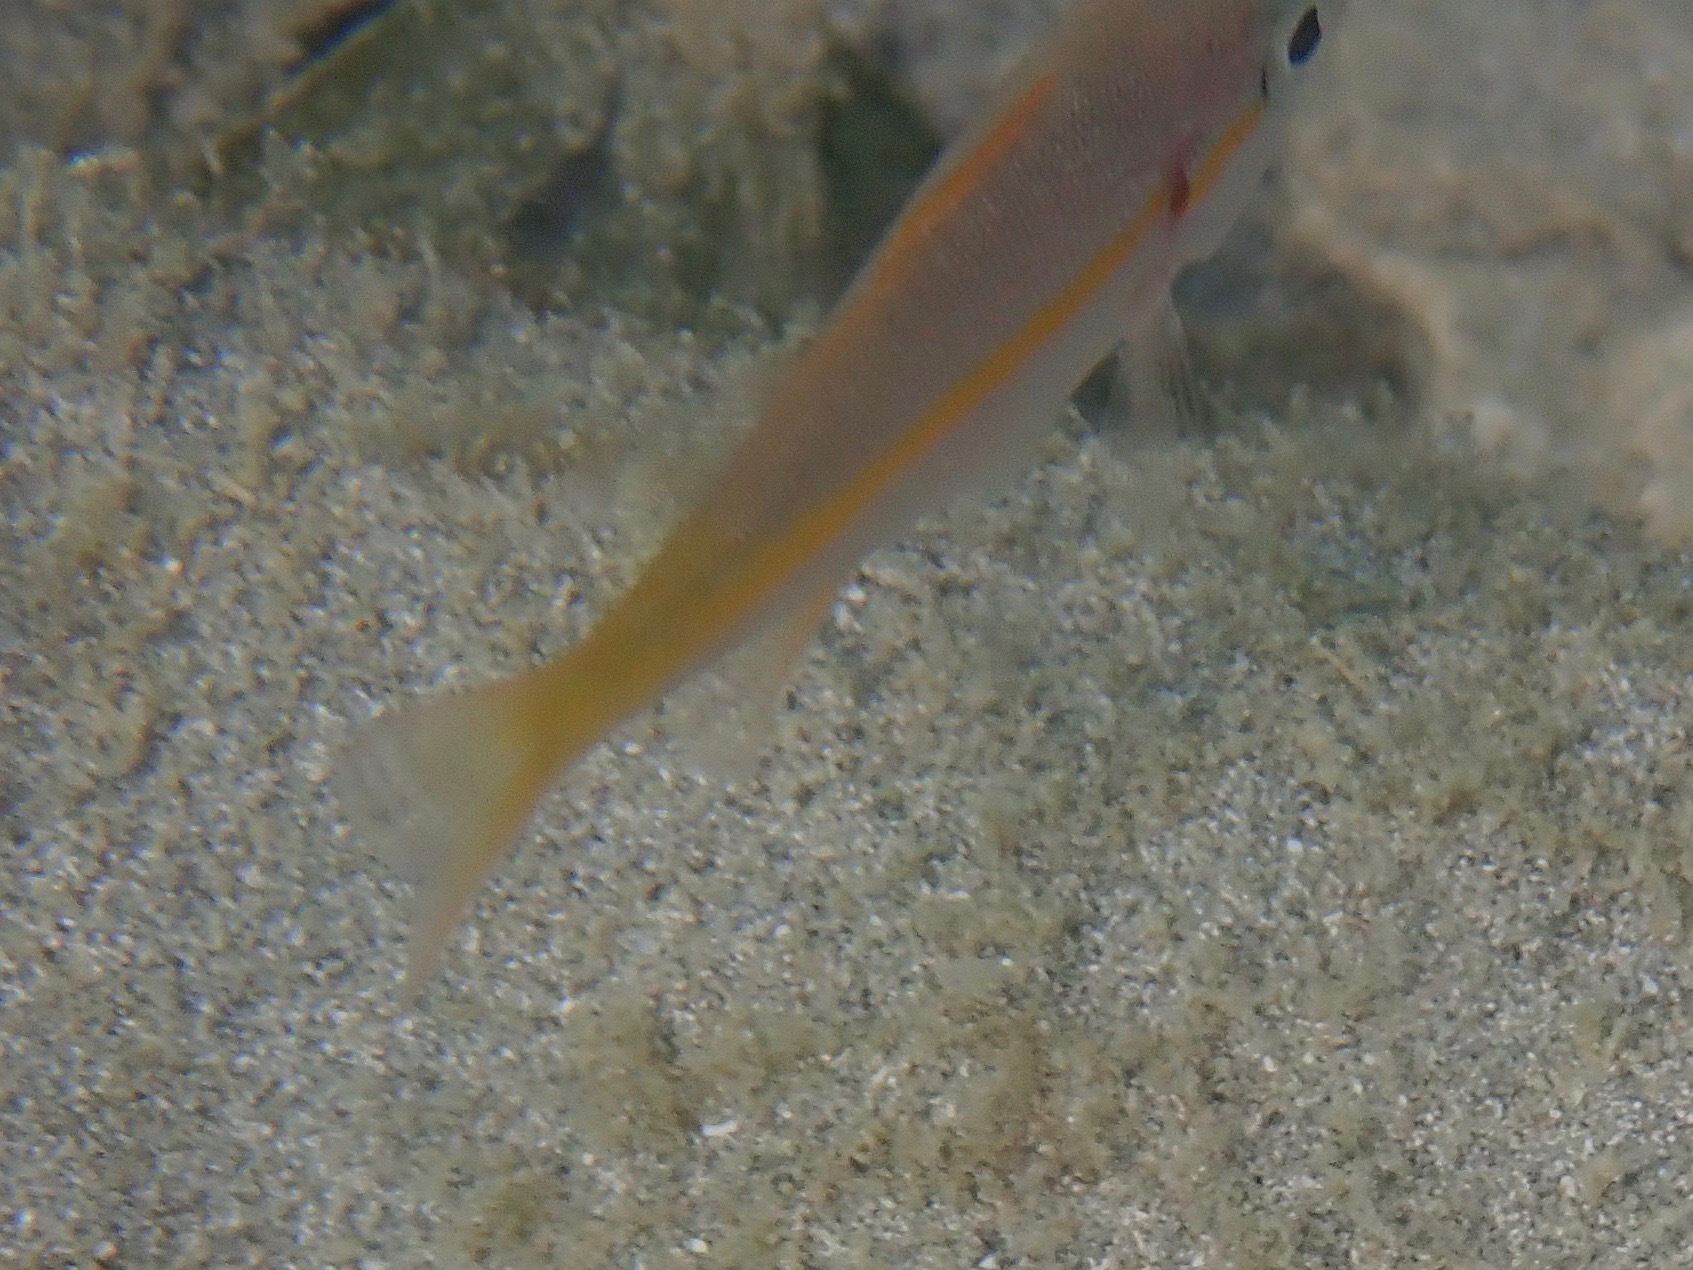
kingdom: Animalia
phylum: Chordata
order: Perciformes
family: Lutjanidae
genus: Ocyurus
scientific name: Ocyurus chrysurus
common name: Yellowtail snapper
